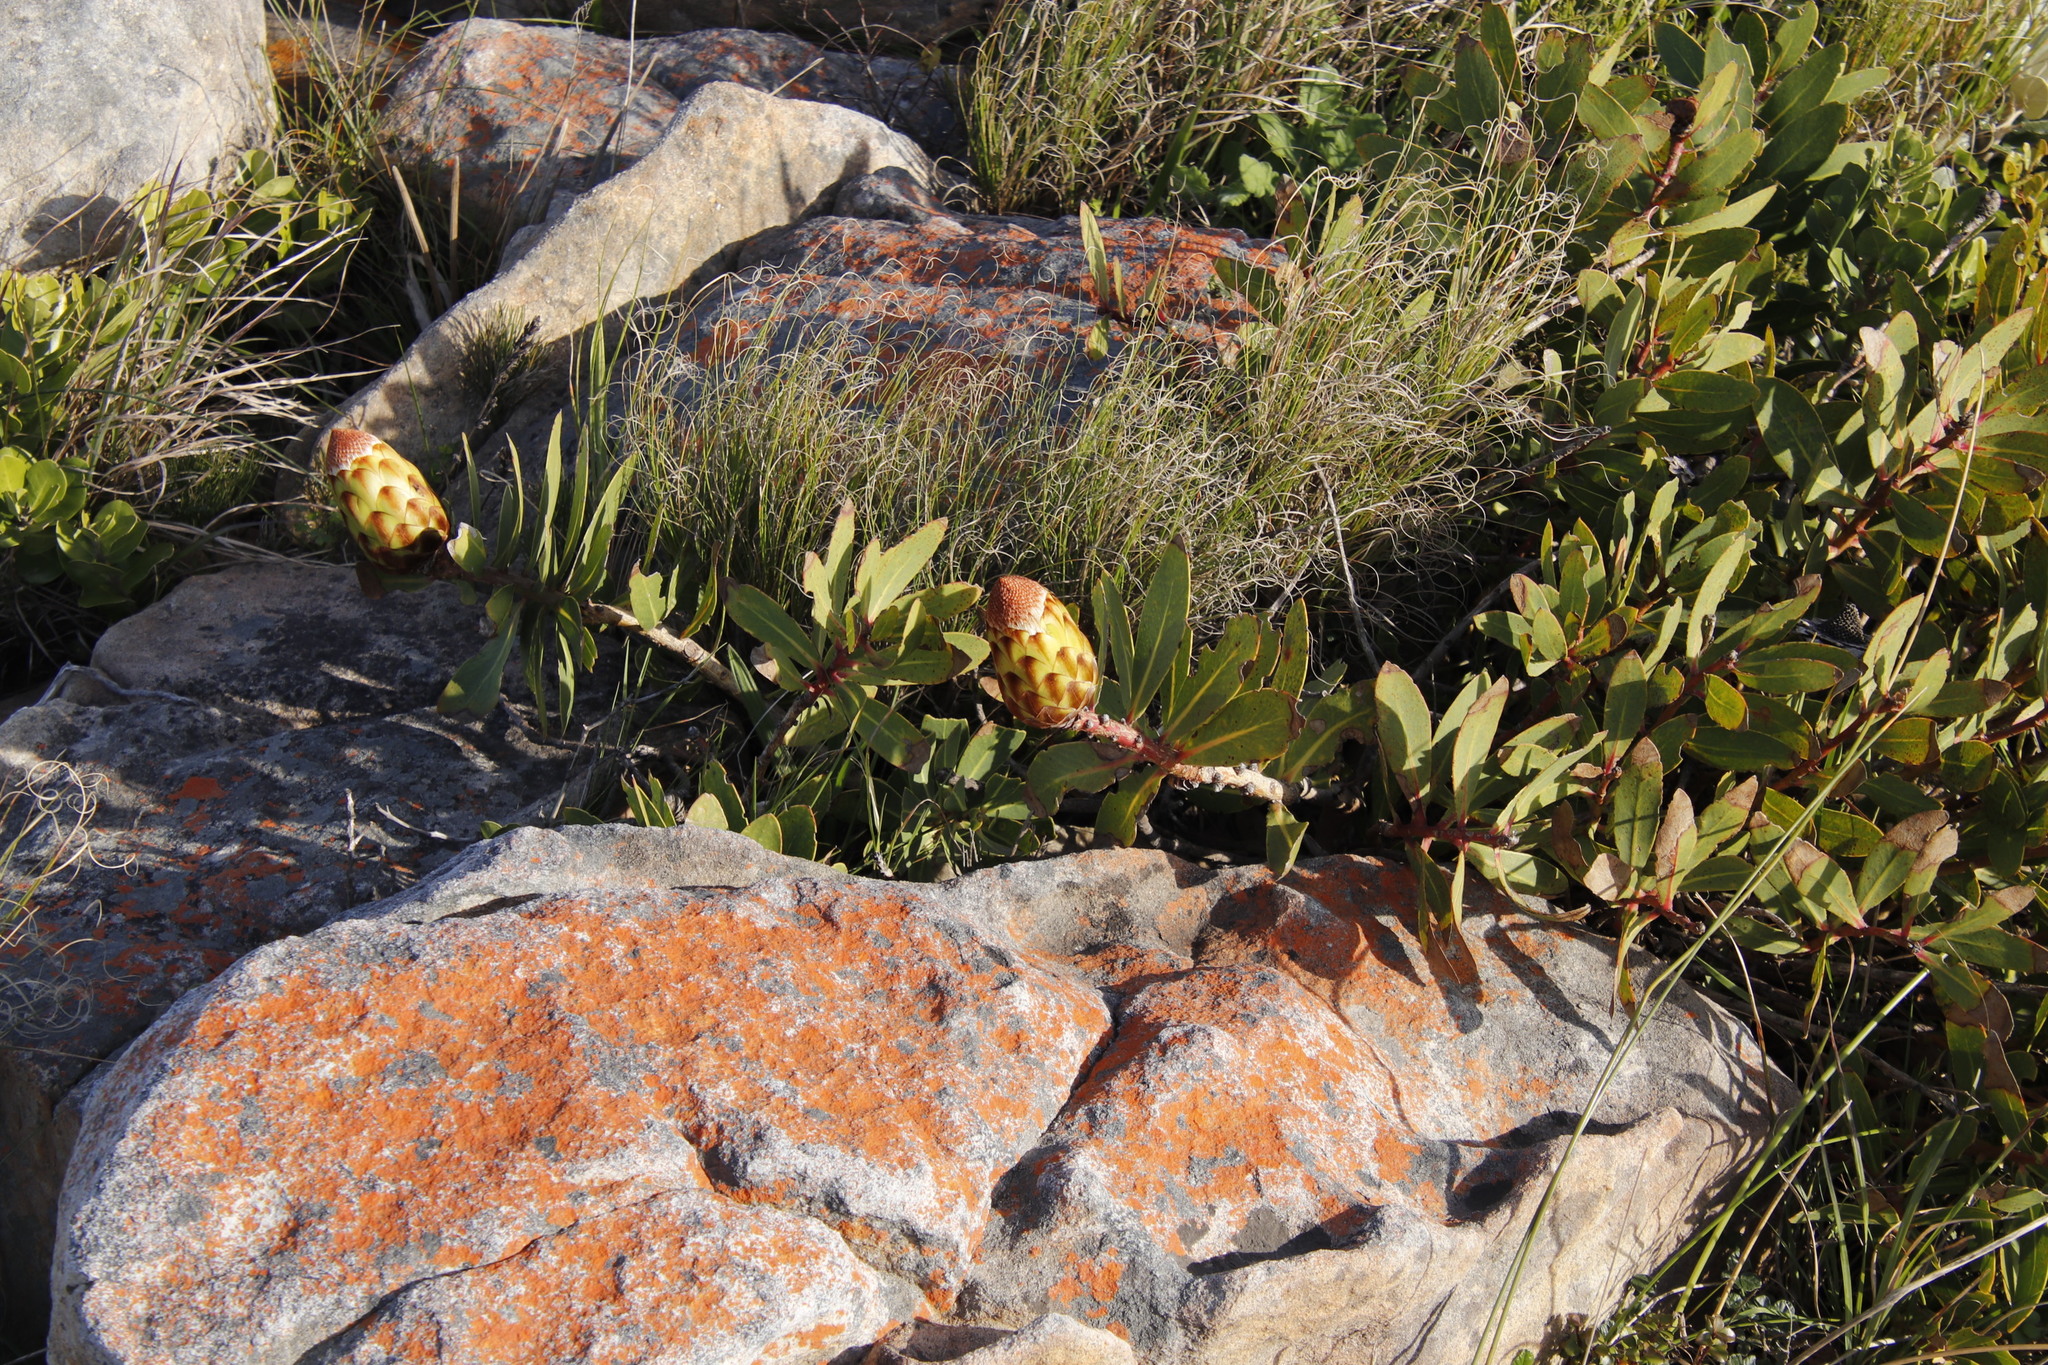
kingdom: Plantae
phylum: Tracheophyta
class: Magnoliopsida
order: Proteales
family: Proteaceae
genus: Protea
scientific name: Protea nitida
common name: Tree protea
